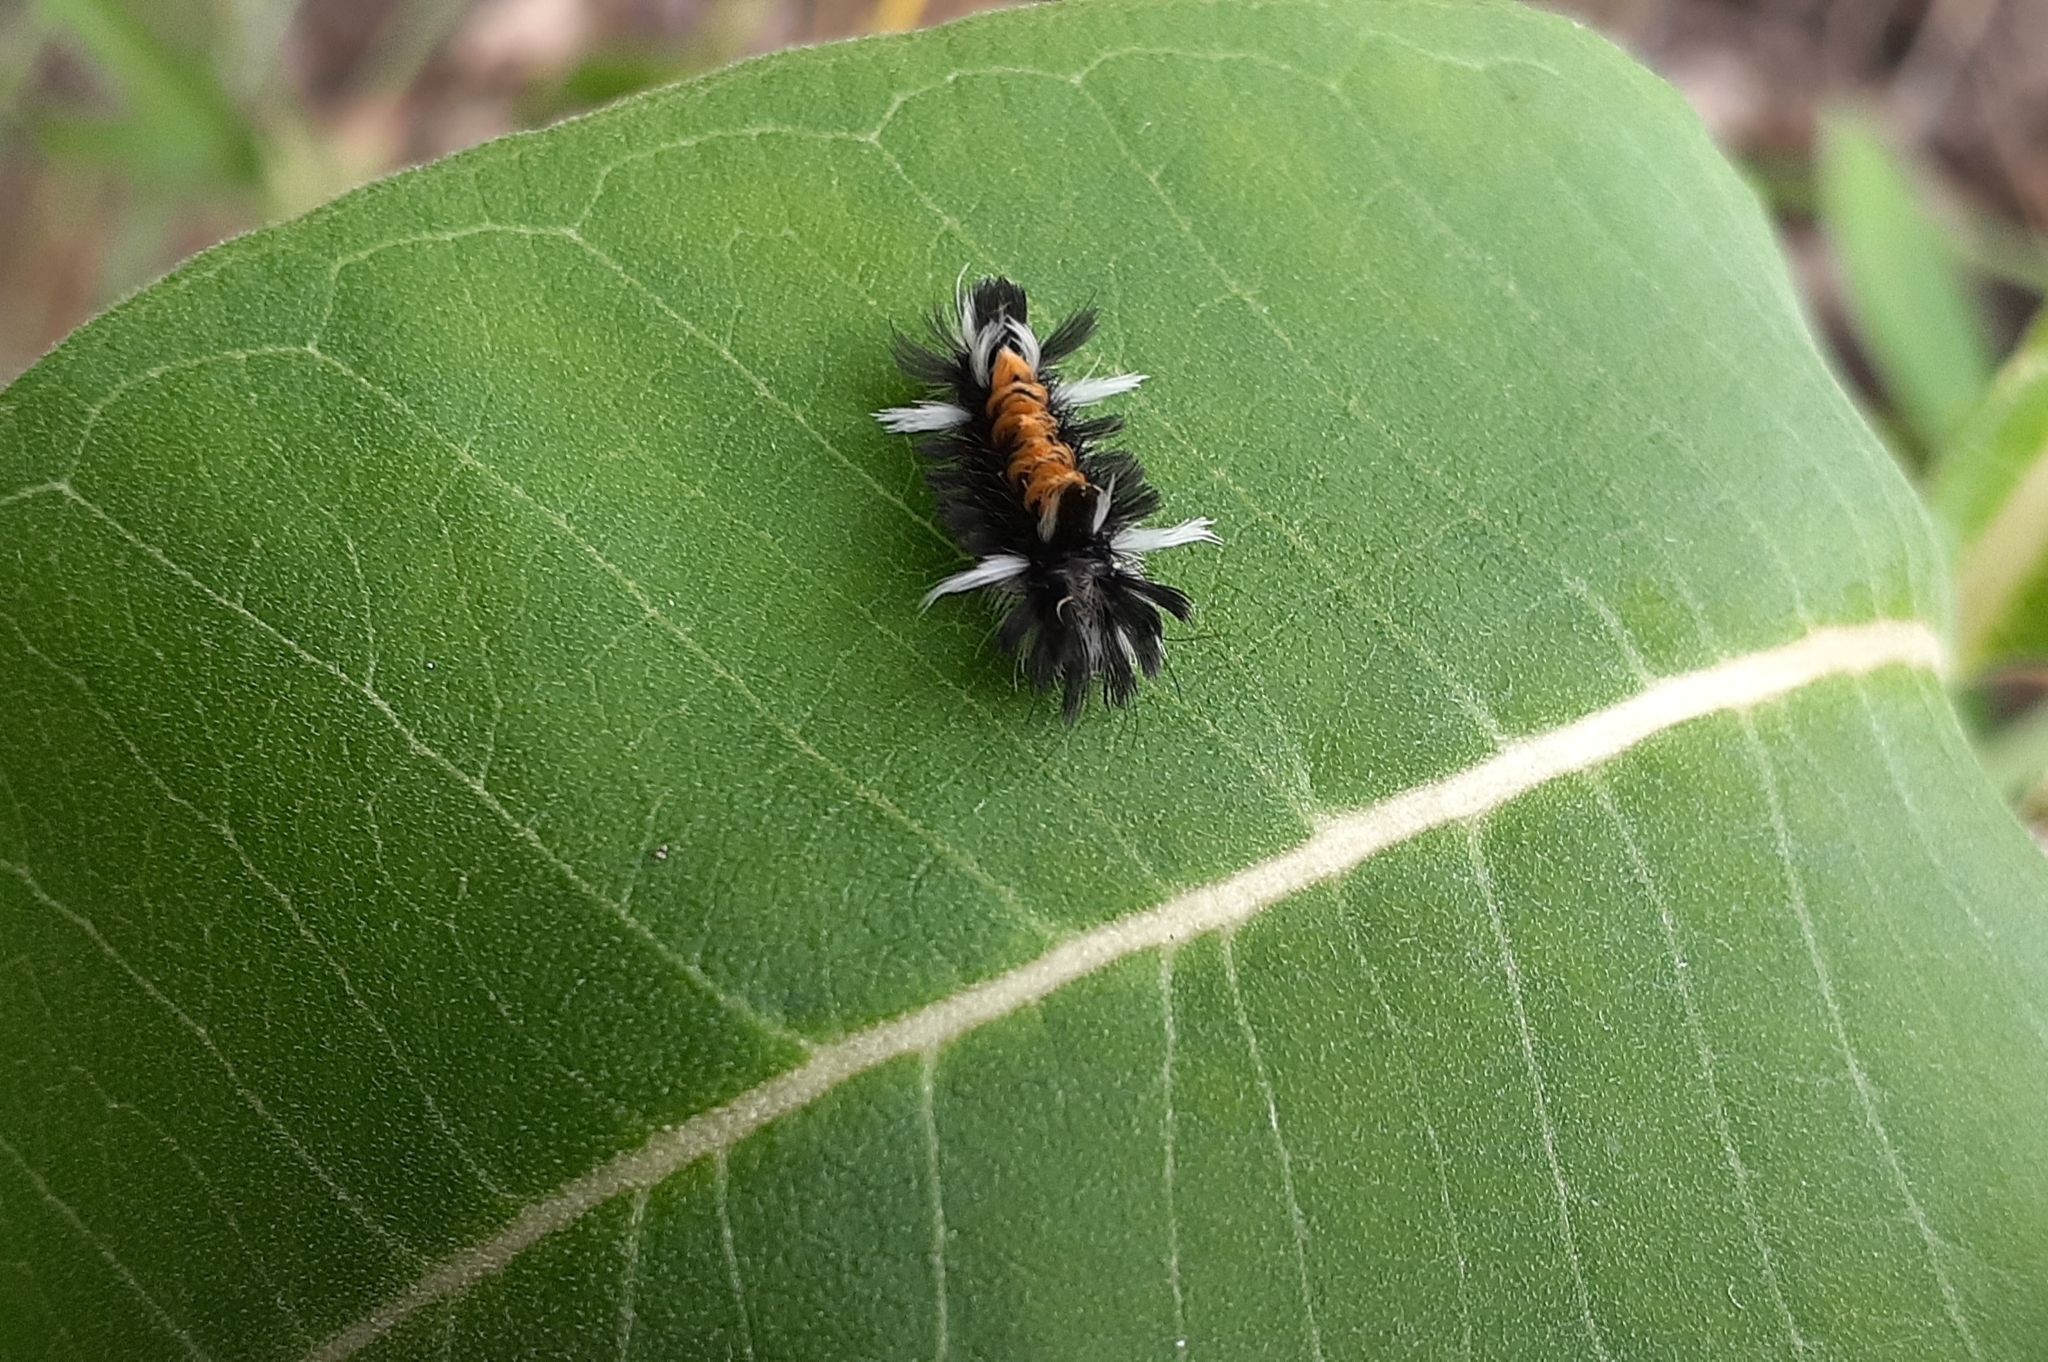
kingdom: Animalia
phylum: Arthropoda
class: Insecta
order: Lepidoptera
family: Erebidae
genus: Euchaetes
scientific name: Euchaetes egle
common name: Milkweed tussock moth
